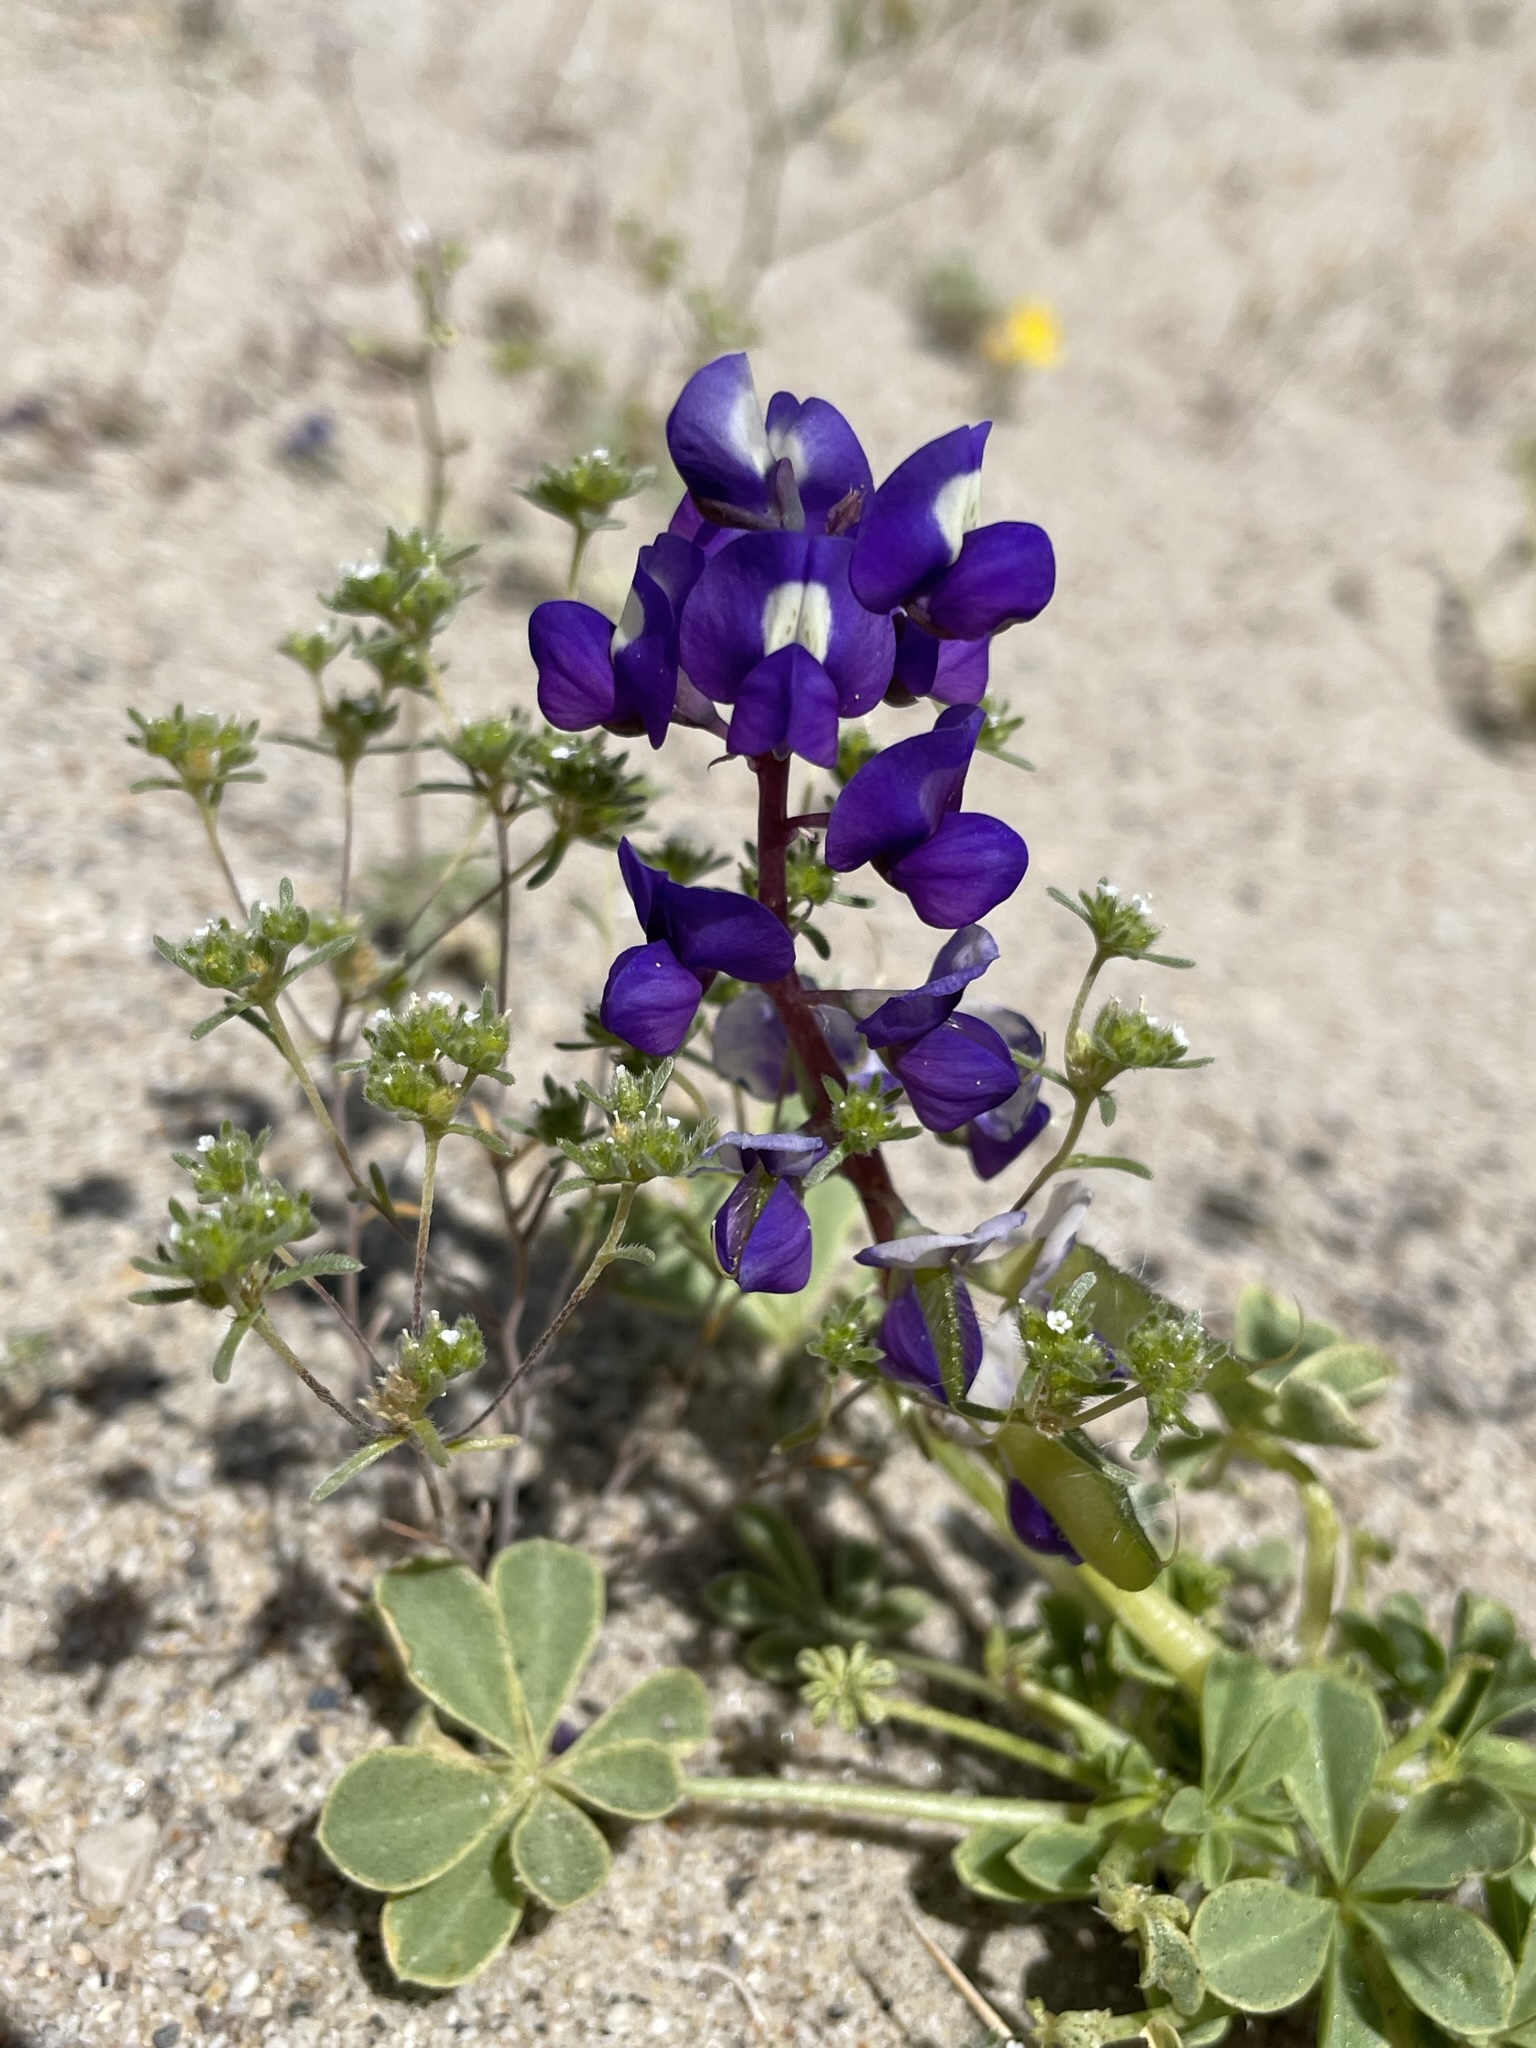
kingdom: Plantae
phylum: Tracheophyta
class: Magnoliopsida
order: Fabales
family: Fabaceae
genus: Lupinus
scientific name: Lupinus
